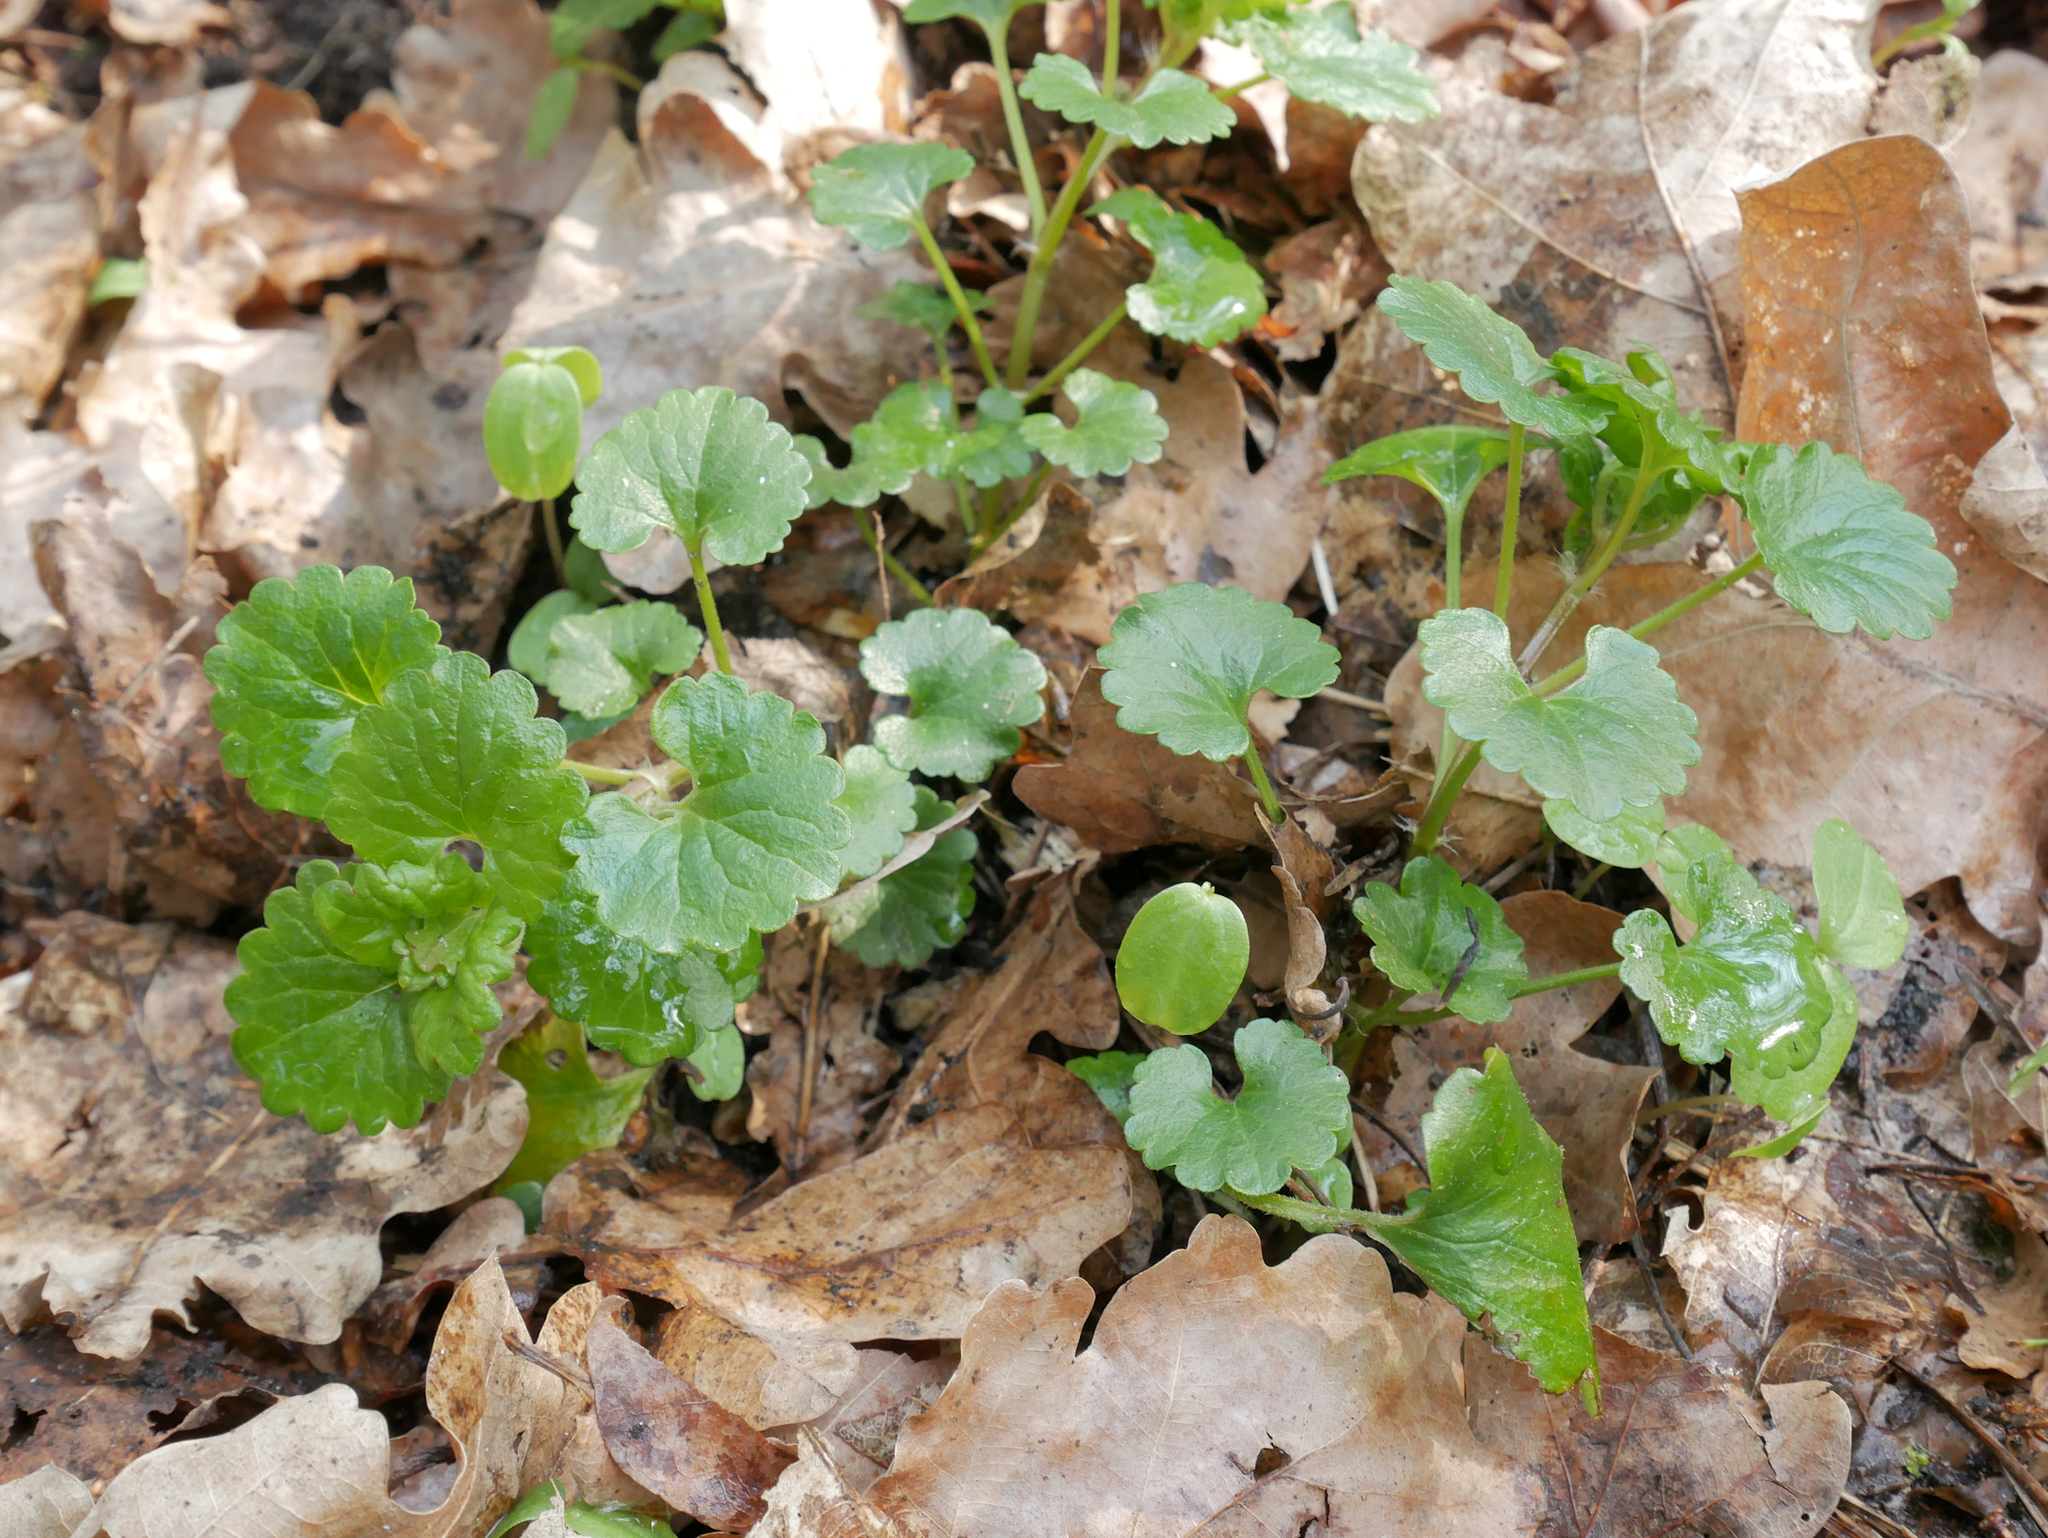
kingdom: Plantae
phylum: Tracheophyta
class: Magnoliopsida
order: Lamiales
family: Lamiaceae
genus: Glechoma
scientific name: Glechoma hederacea
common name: Ground ivy
